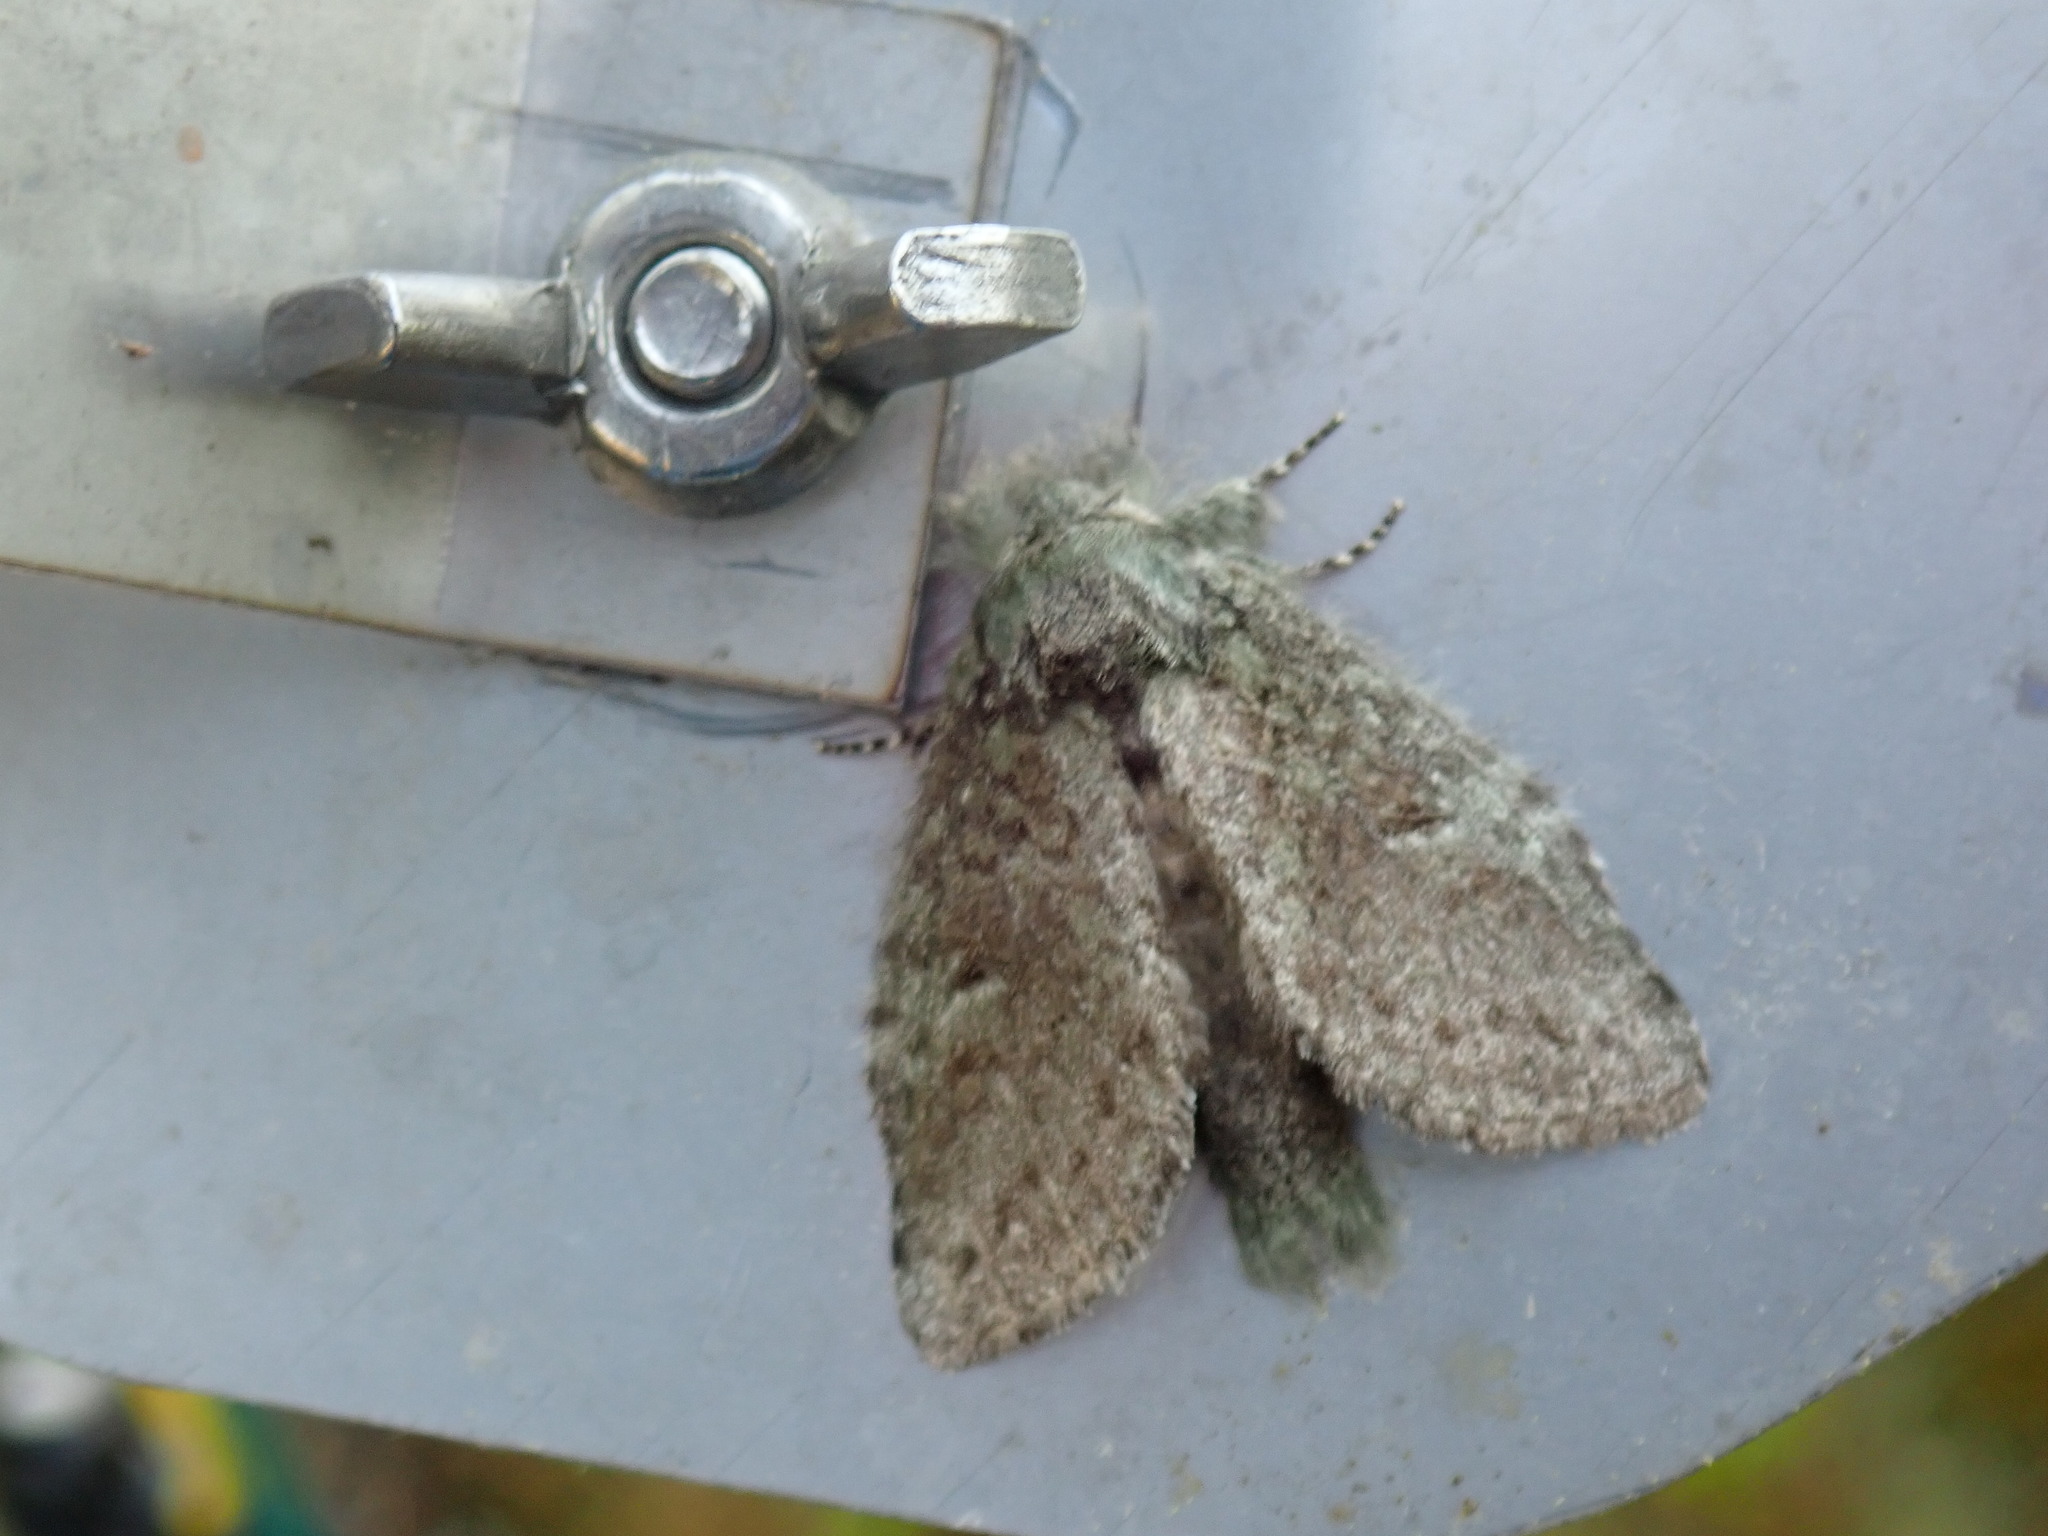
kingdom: Animalia
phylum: Arthropoda
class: Insecta
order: Lepidoptera
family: Notodontidae
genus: Disphragis
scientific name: Disphragis Cecrita guttivitta
